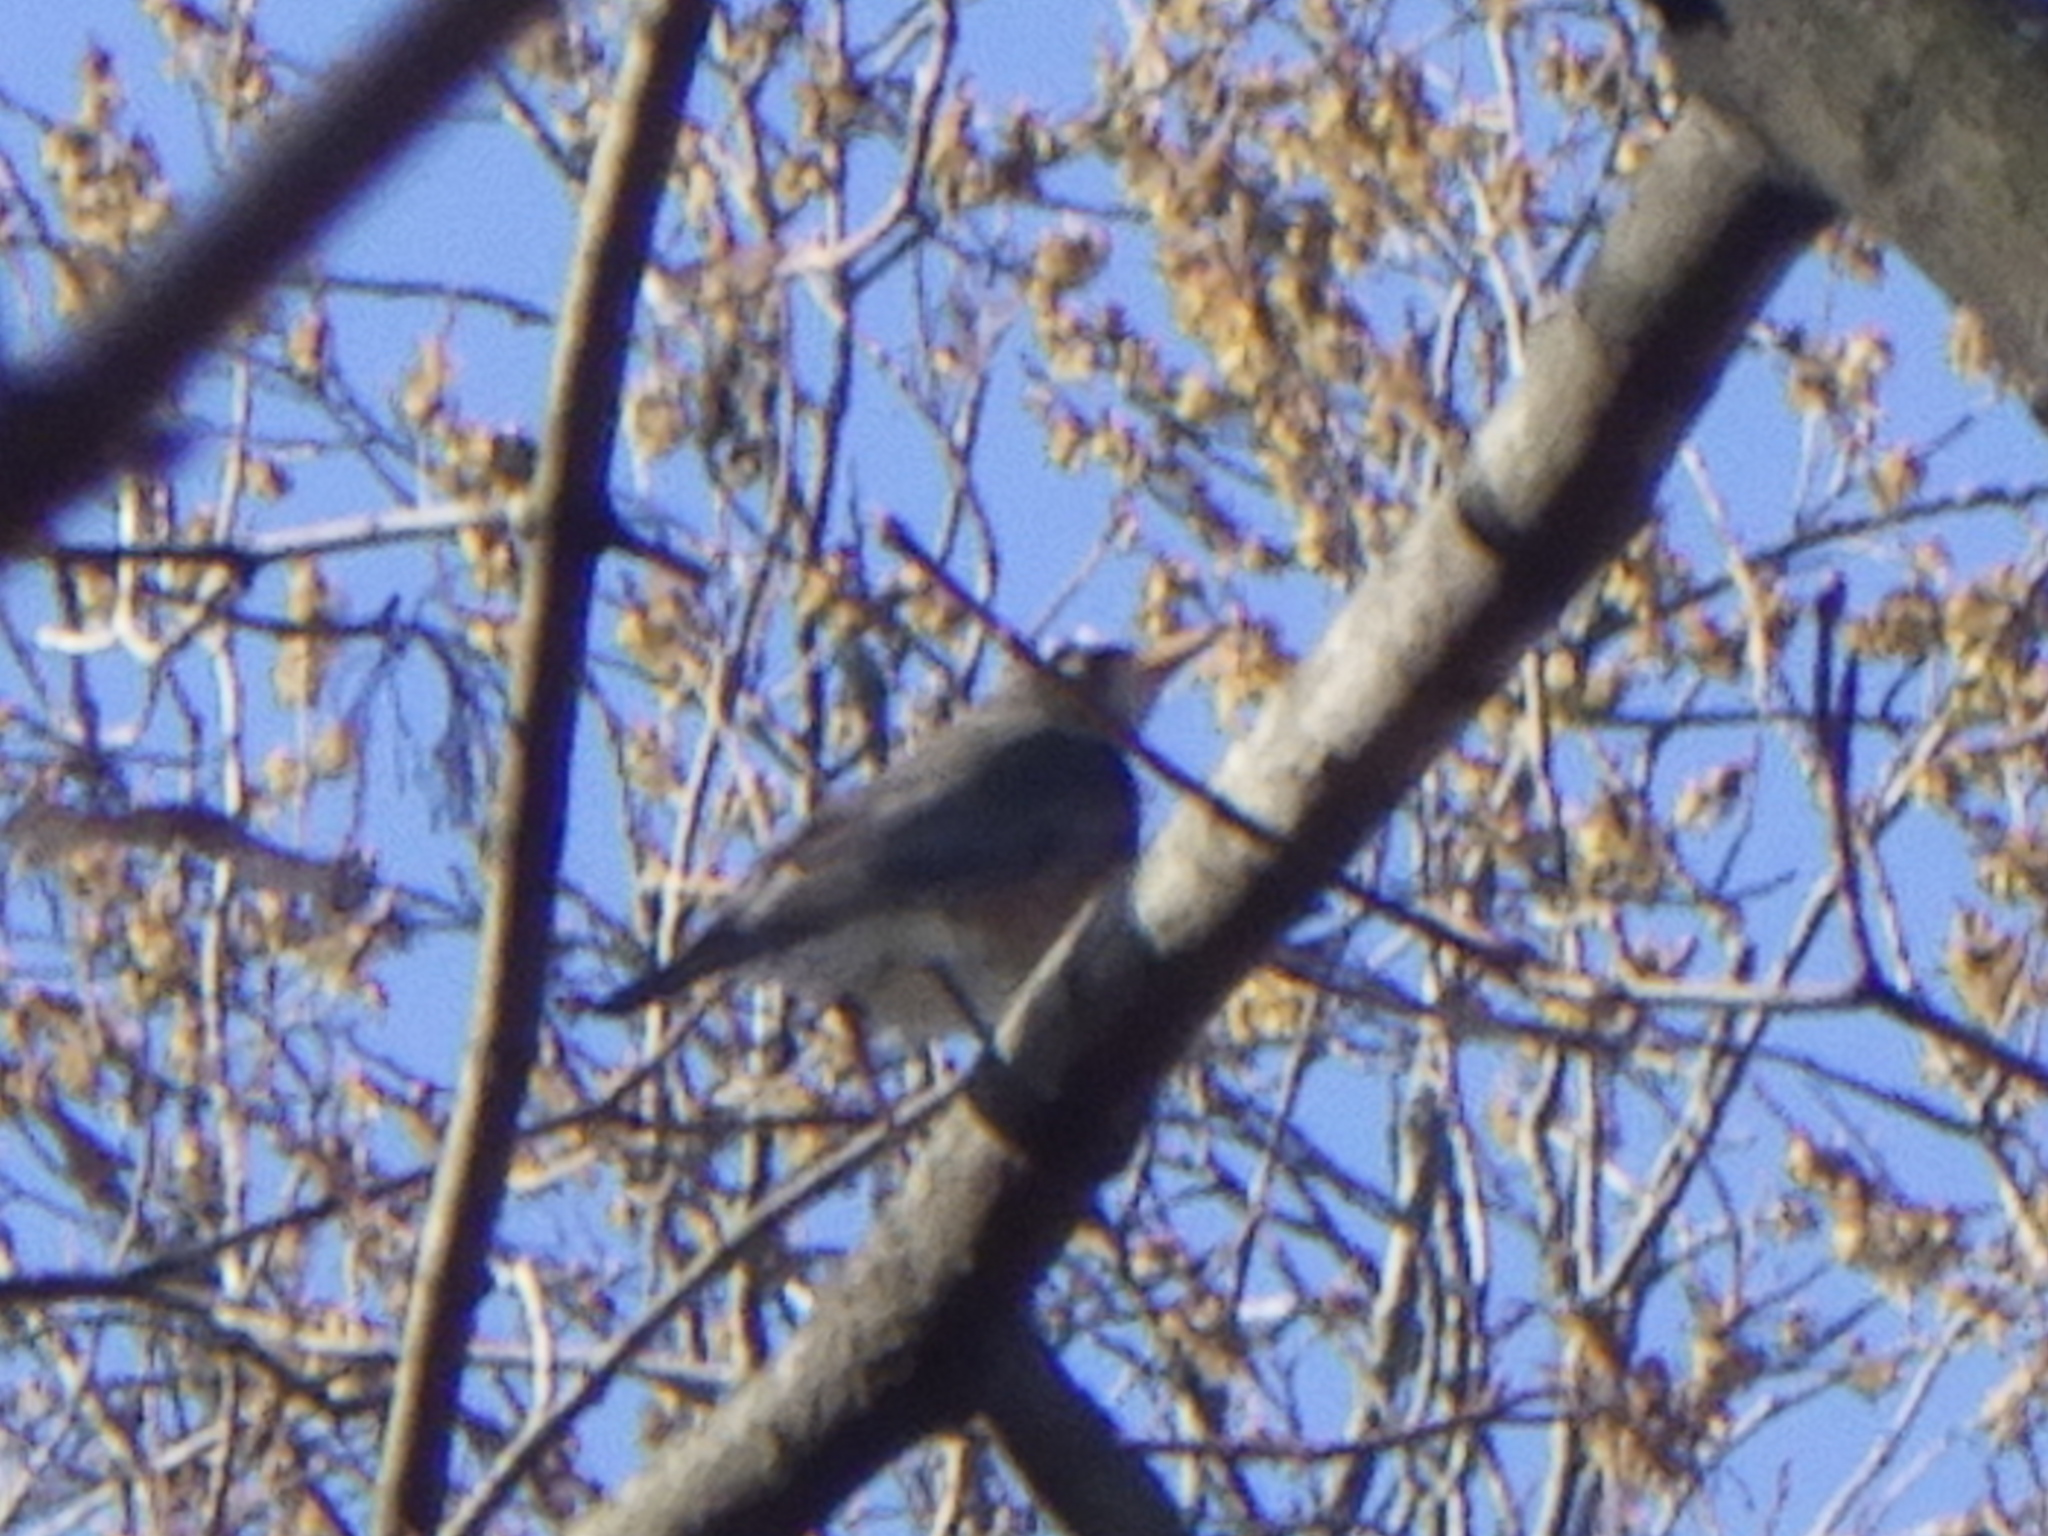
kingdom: Animalia
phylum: Chordata
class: Aves
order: Passeriformes
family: Turdidae
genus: Turdus
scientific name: Turdus migratorius
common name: American robin
